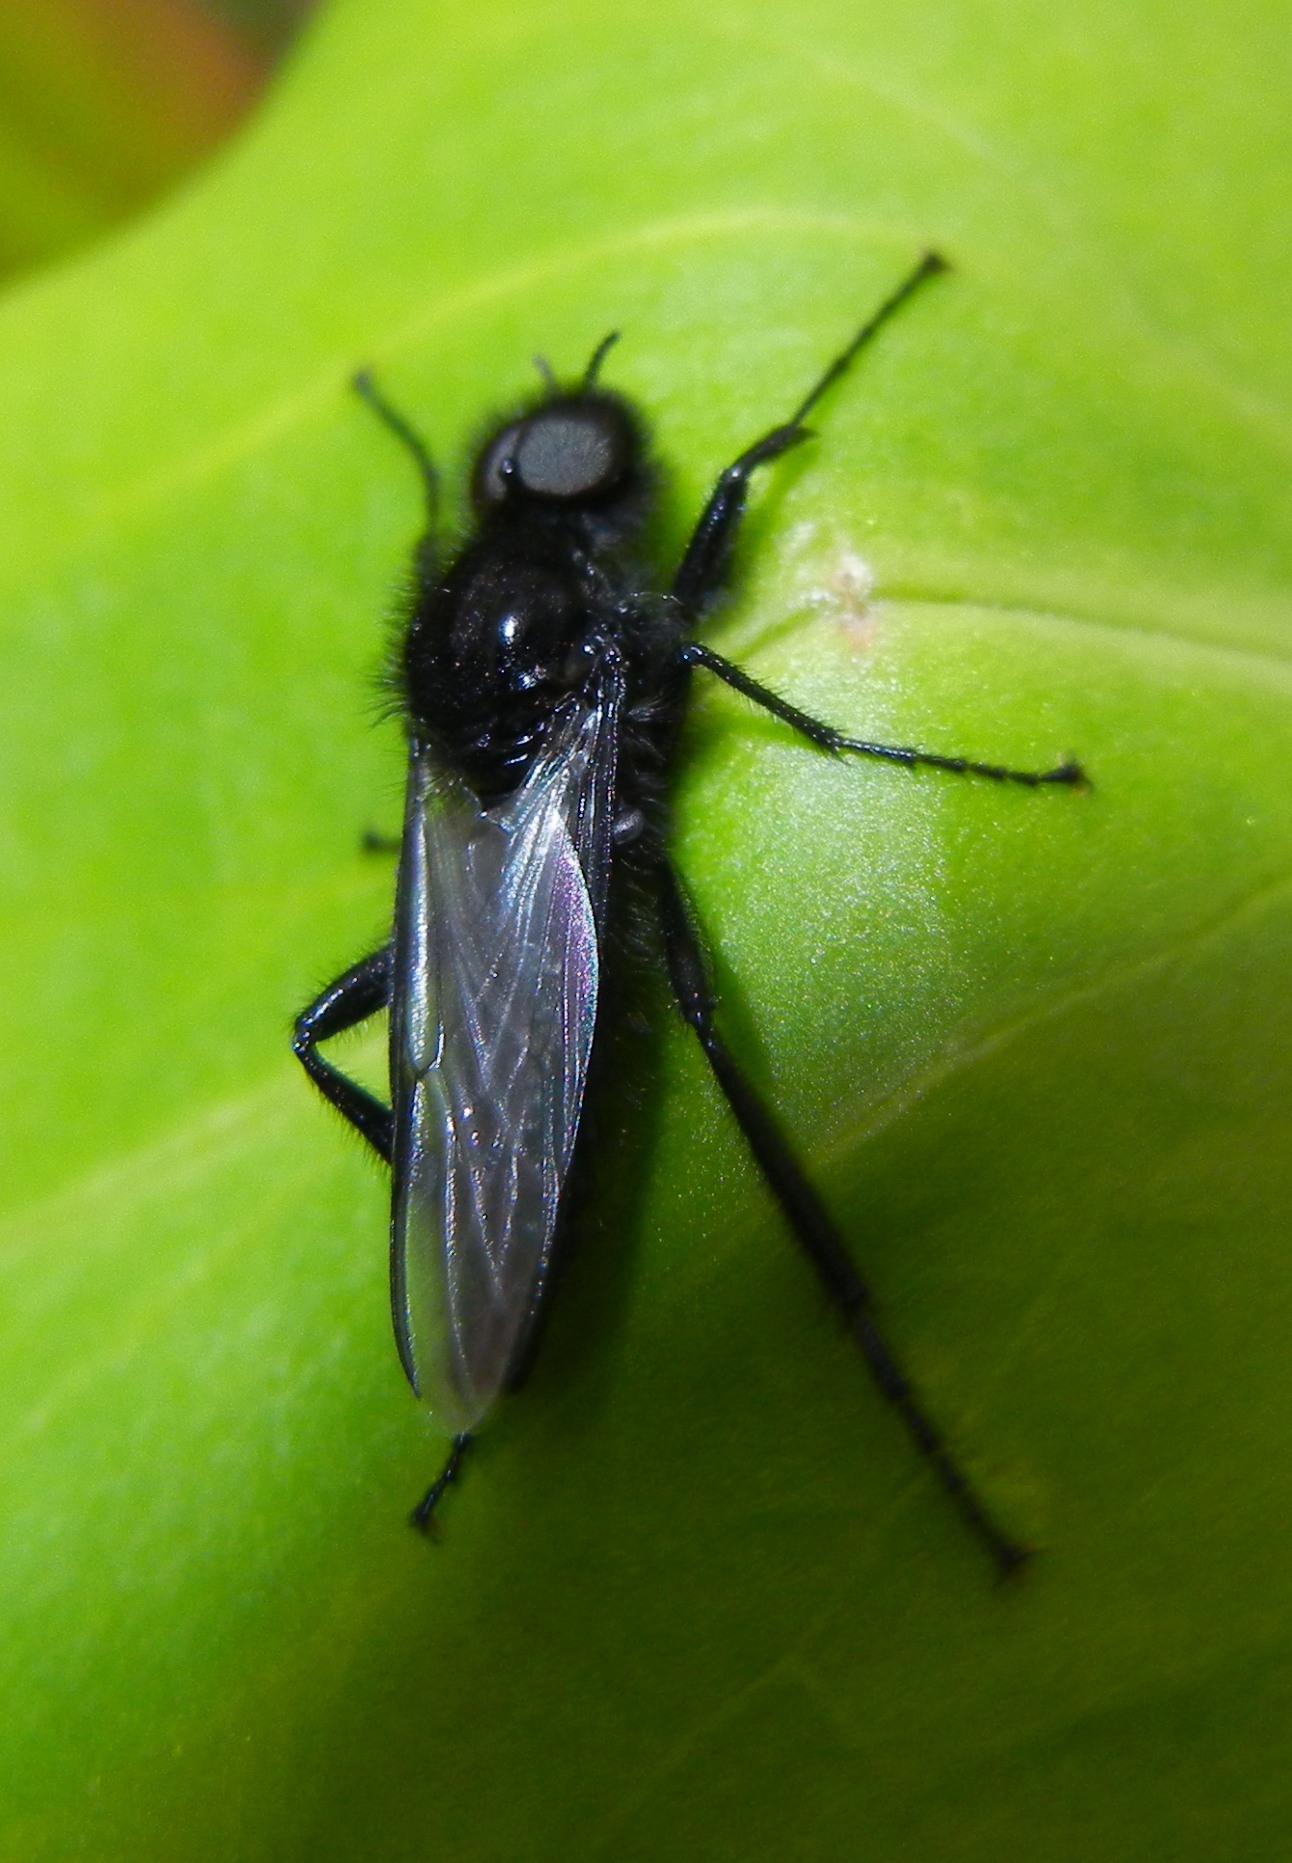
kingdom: Animalia
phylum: Arthropoda
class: Insecta
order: Diptera
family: Bibionidae
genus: Bibio
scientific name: Bibio marci
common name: St marks fly
